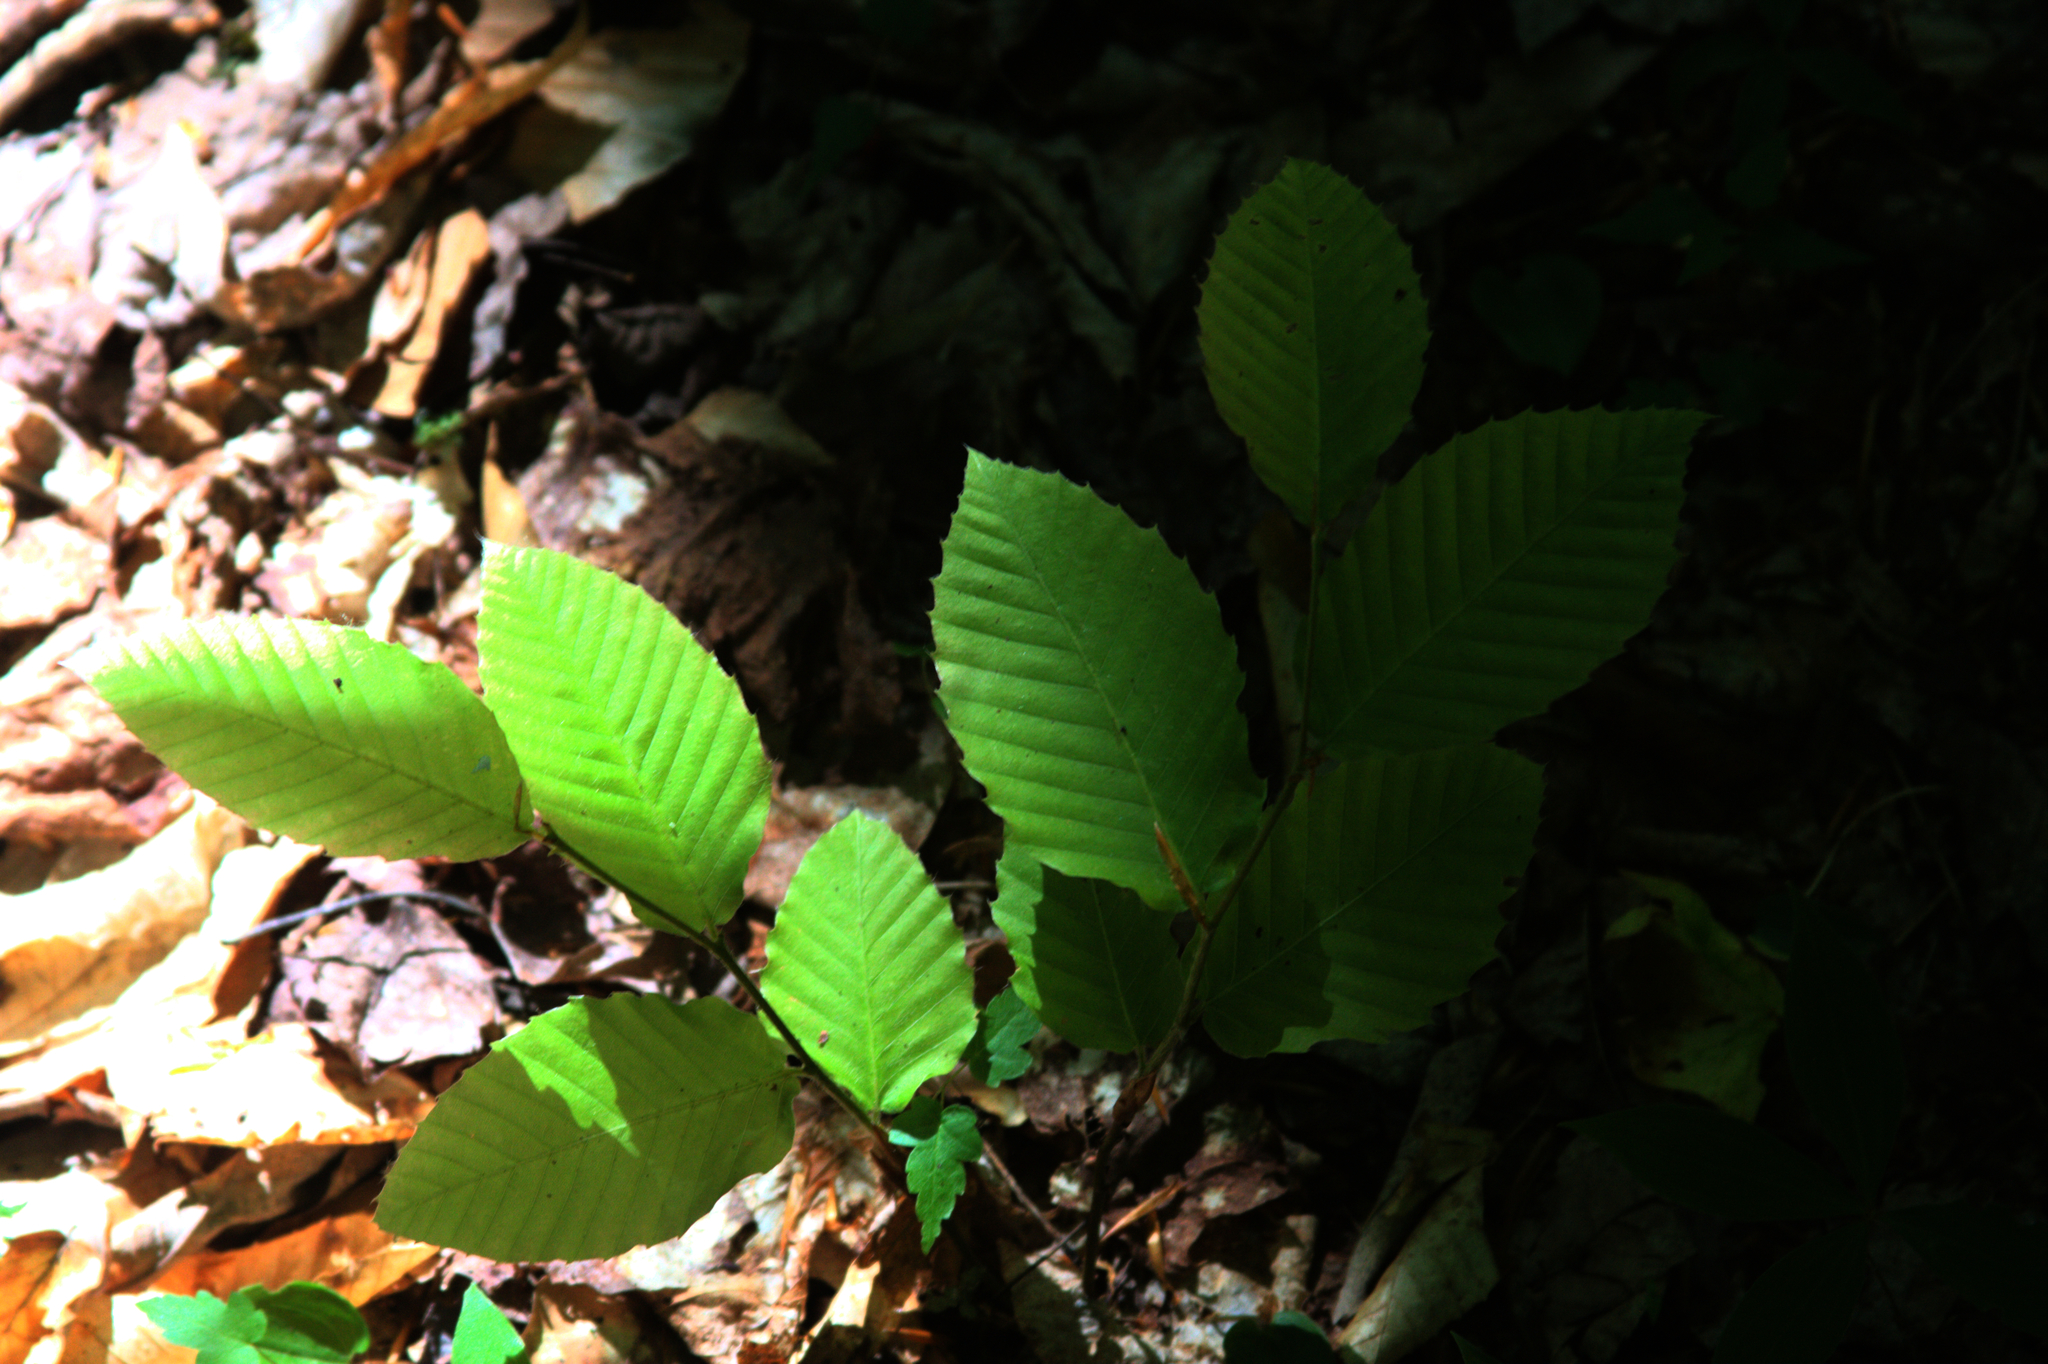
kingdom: Plantae
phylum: Tracheophyta
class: Magnoliopsida
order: Fagales
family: Fagaceae
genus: Fagus
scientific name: Fagus grandifolia
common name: American beech
